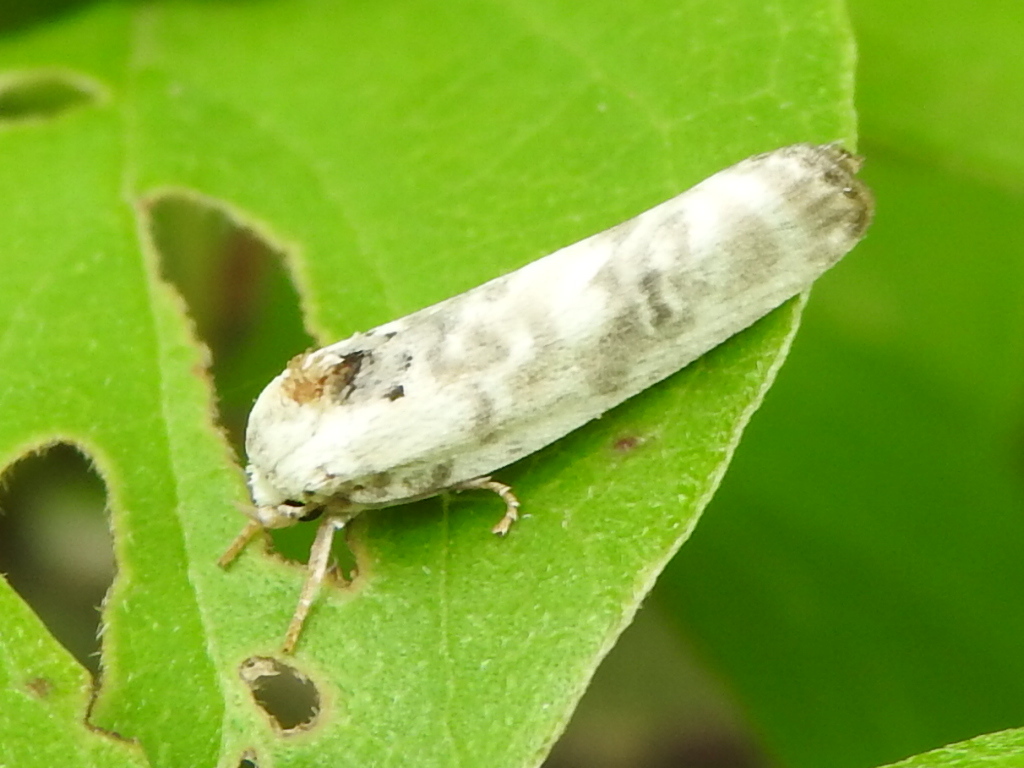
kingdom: Animalia
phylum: Arthropoda
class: Insecta
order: Lepidoptera
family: Depressariidae
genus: Antaeotricha
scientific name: Antaeotricha leucillana
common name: Pale gray bird-dropping moth
